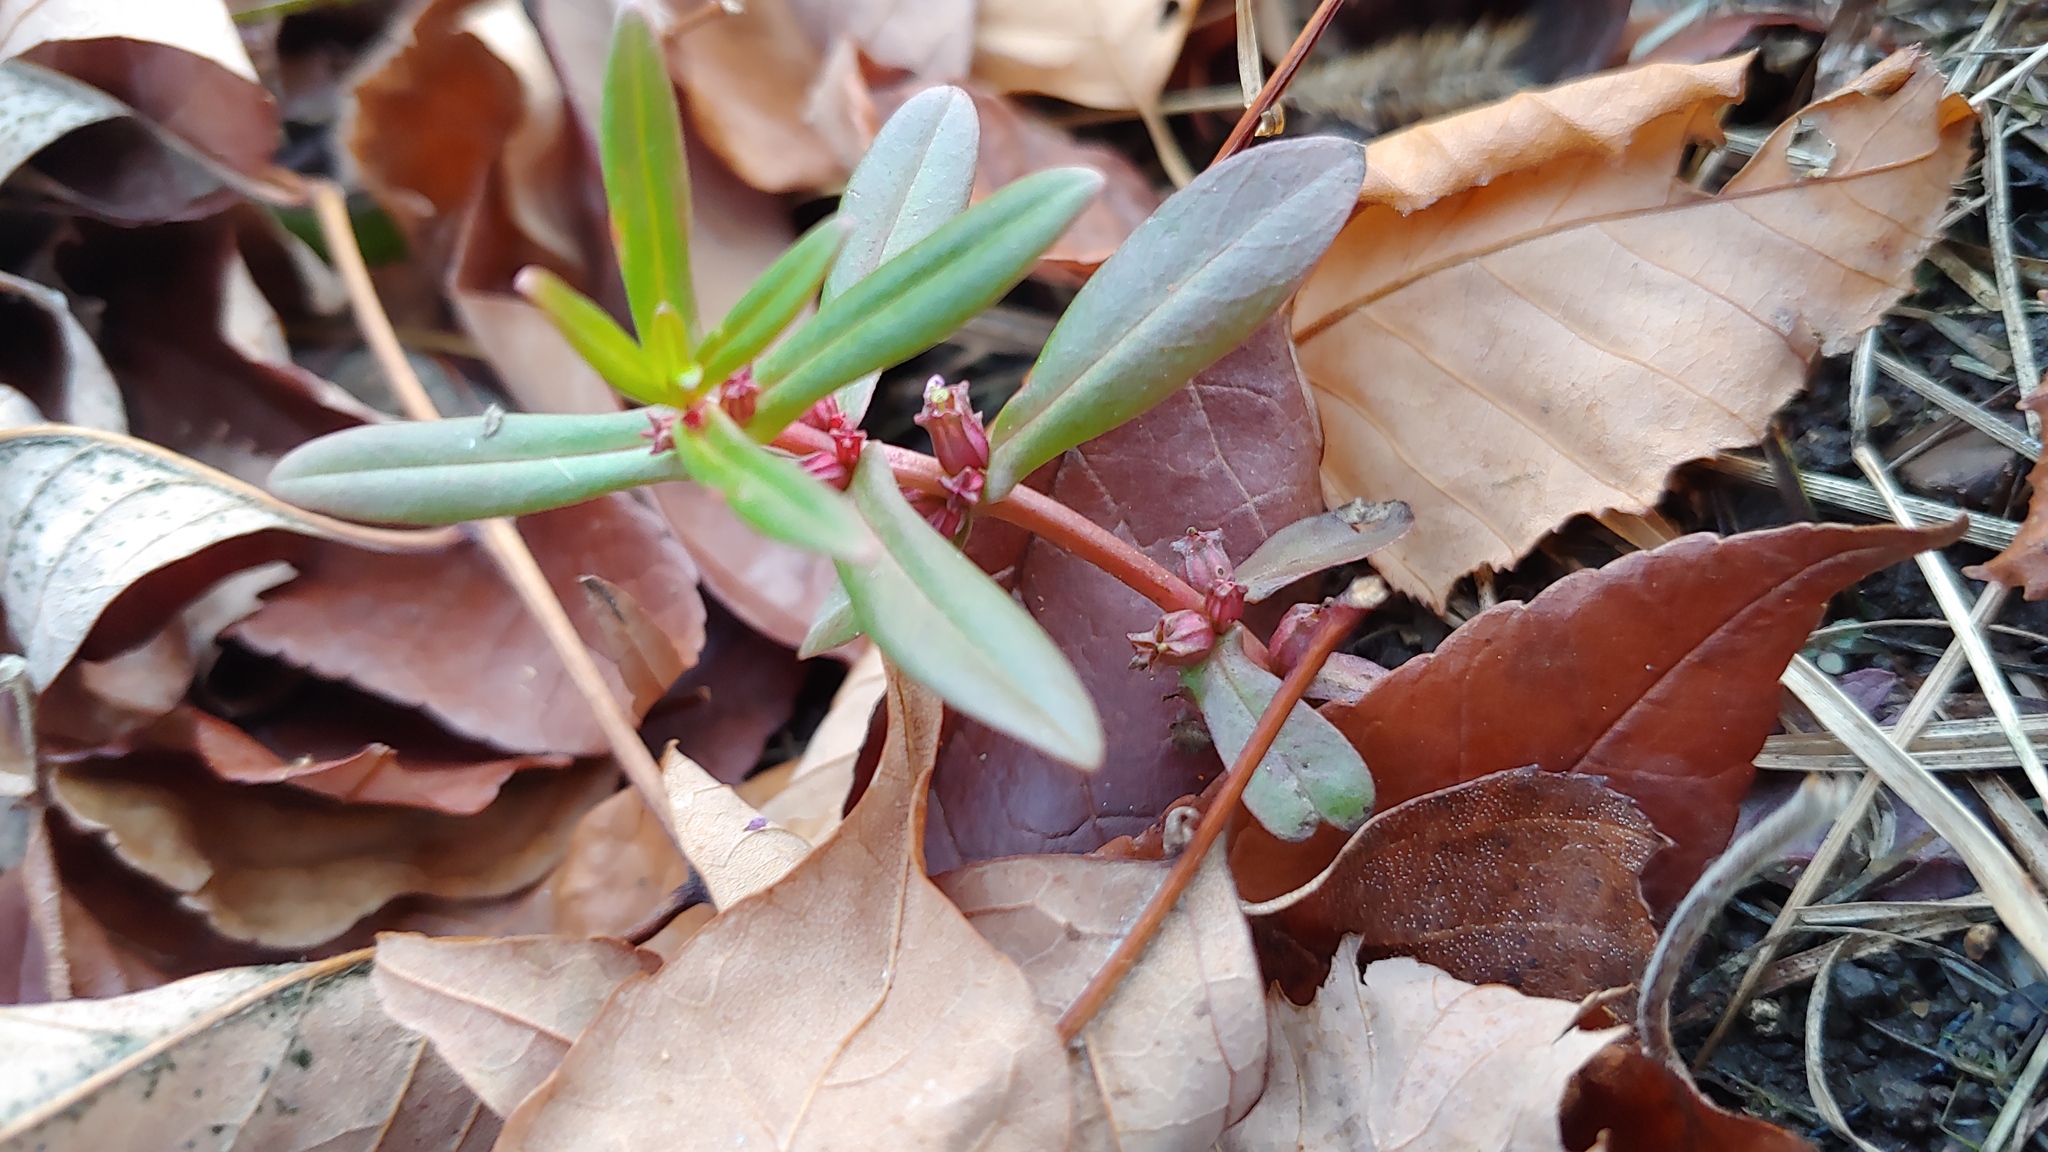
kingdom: Plantae
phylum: Tracheophyta
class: Magnoliopsida
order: Myrtales
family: Lythraceae
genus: Ammannia
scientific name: Ammannia robusta
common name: Grand ammannia
